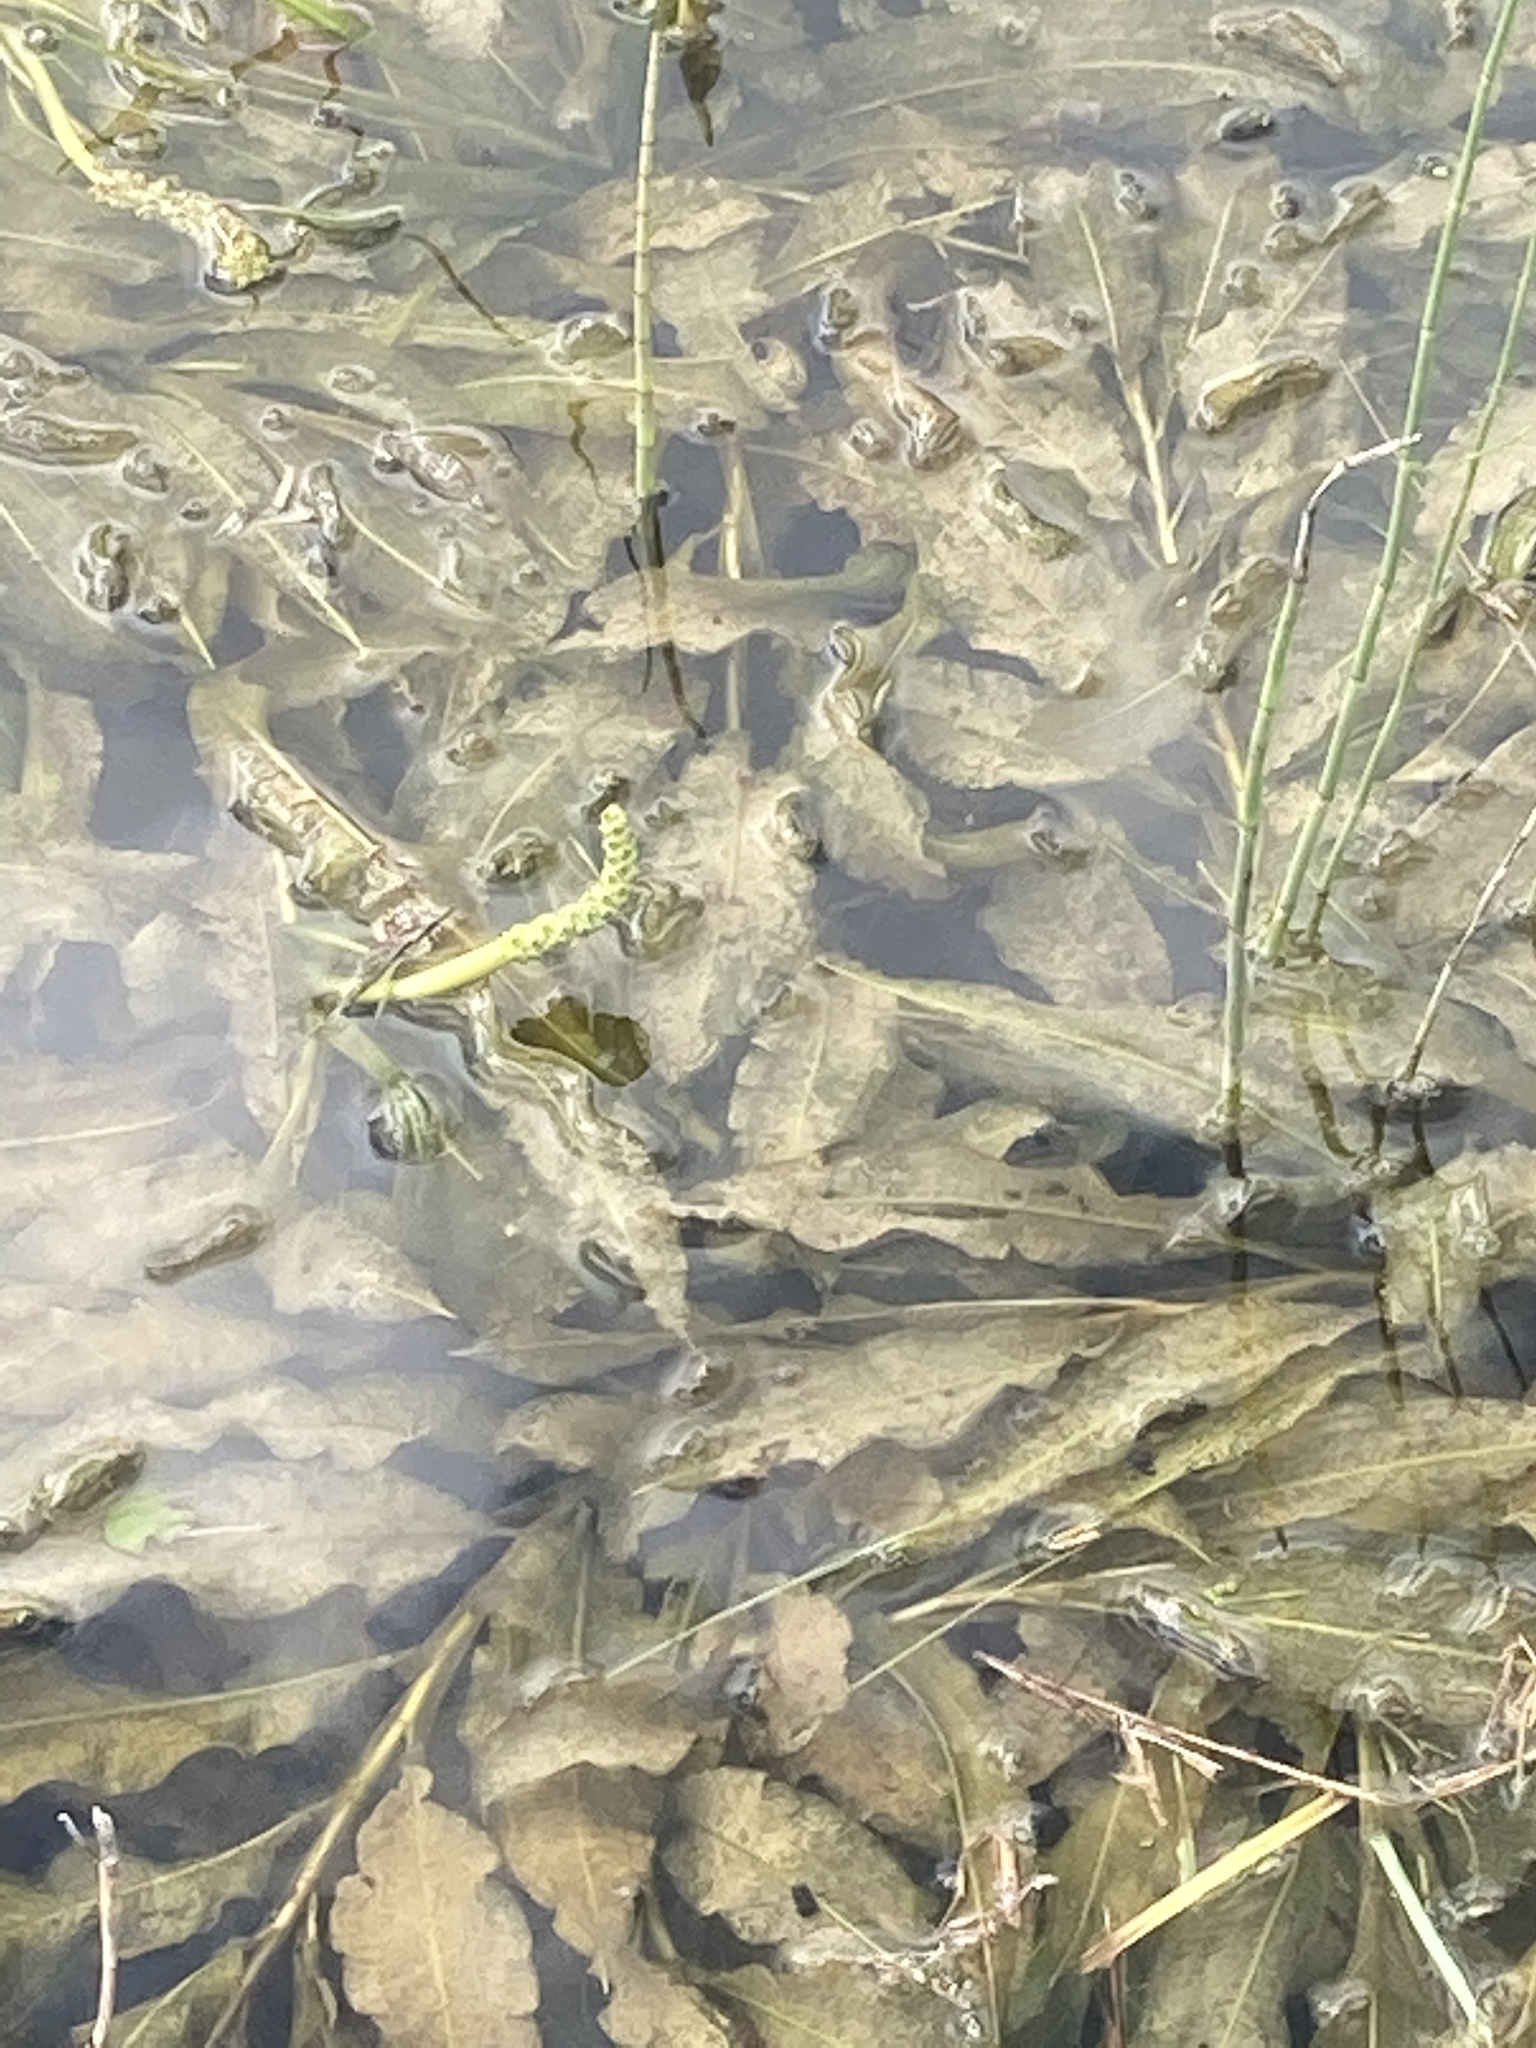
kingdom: Plantae
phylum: Tracheophyta
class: Liliopsida
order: Alismatales
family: Potamogetonaceae
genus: Potamogeton
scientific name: Potamogeton lucens
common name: Shining pondweed
